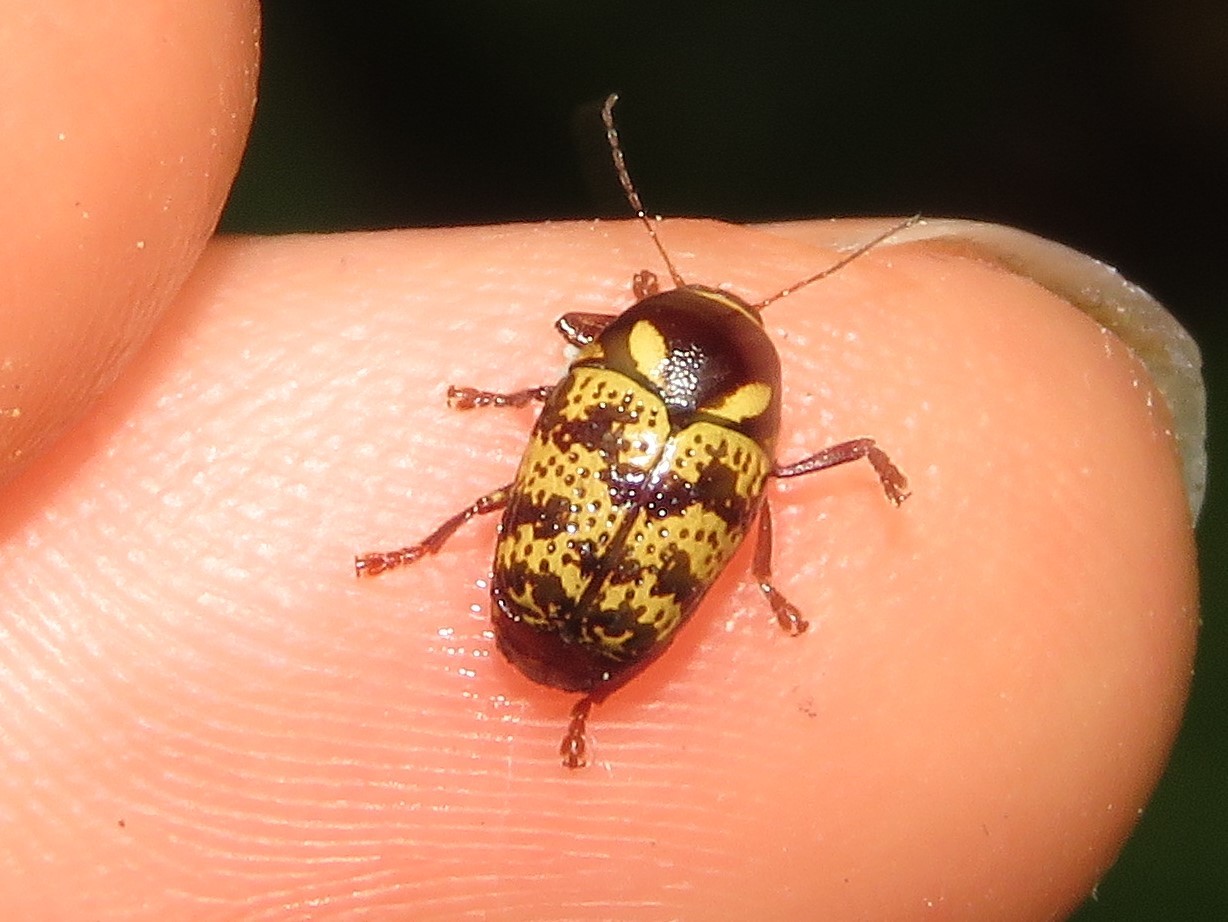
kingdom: Animalia
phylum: Arthropoda
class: Insecta
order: Coleoptera
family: Chrysomelidae
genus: Cryptocephalus
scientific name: Cryptocephalus irroratus
